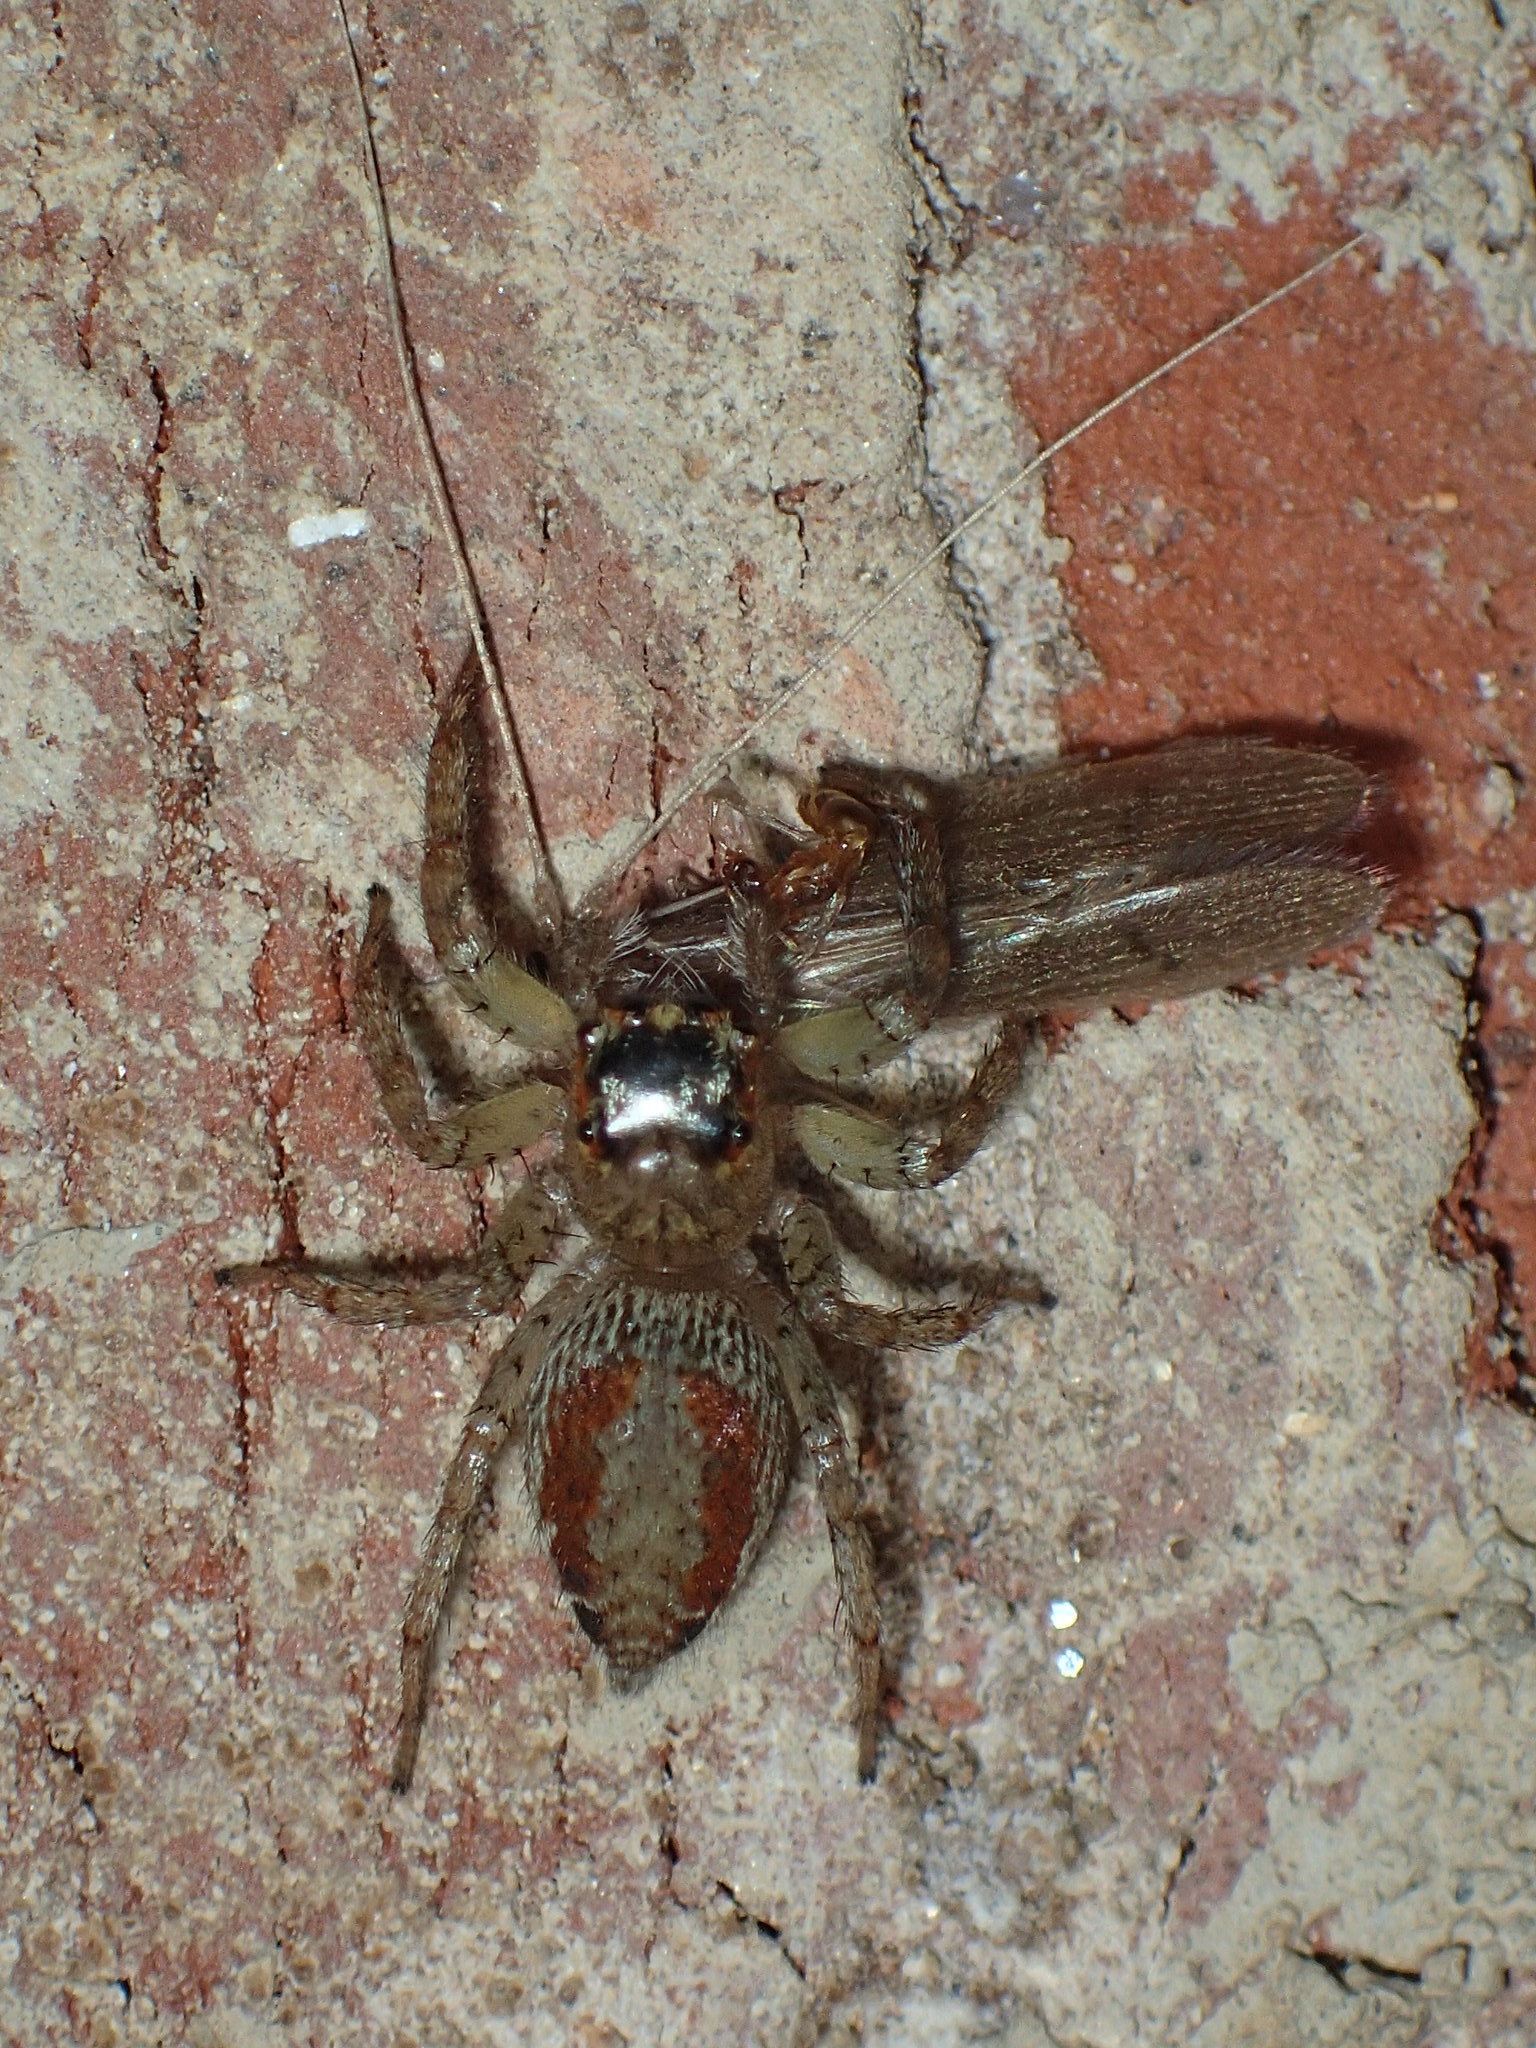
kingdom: Animalia
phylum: Arthropoda
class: Arachnida
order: Araneae
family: Salticidae
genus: Maevia
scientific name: Maevia inclemens
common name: Dimorphic jumper
